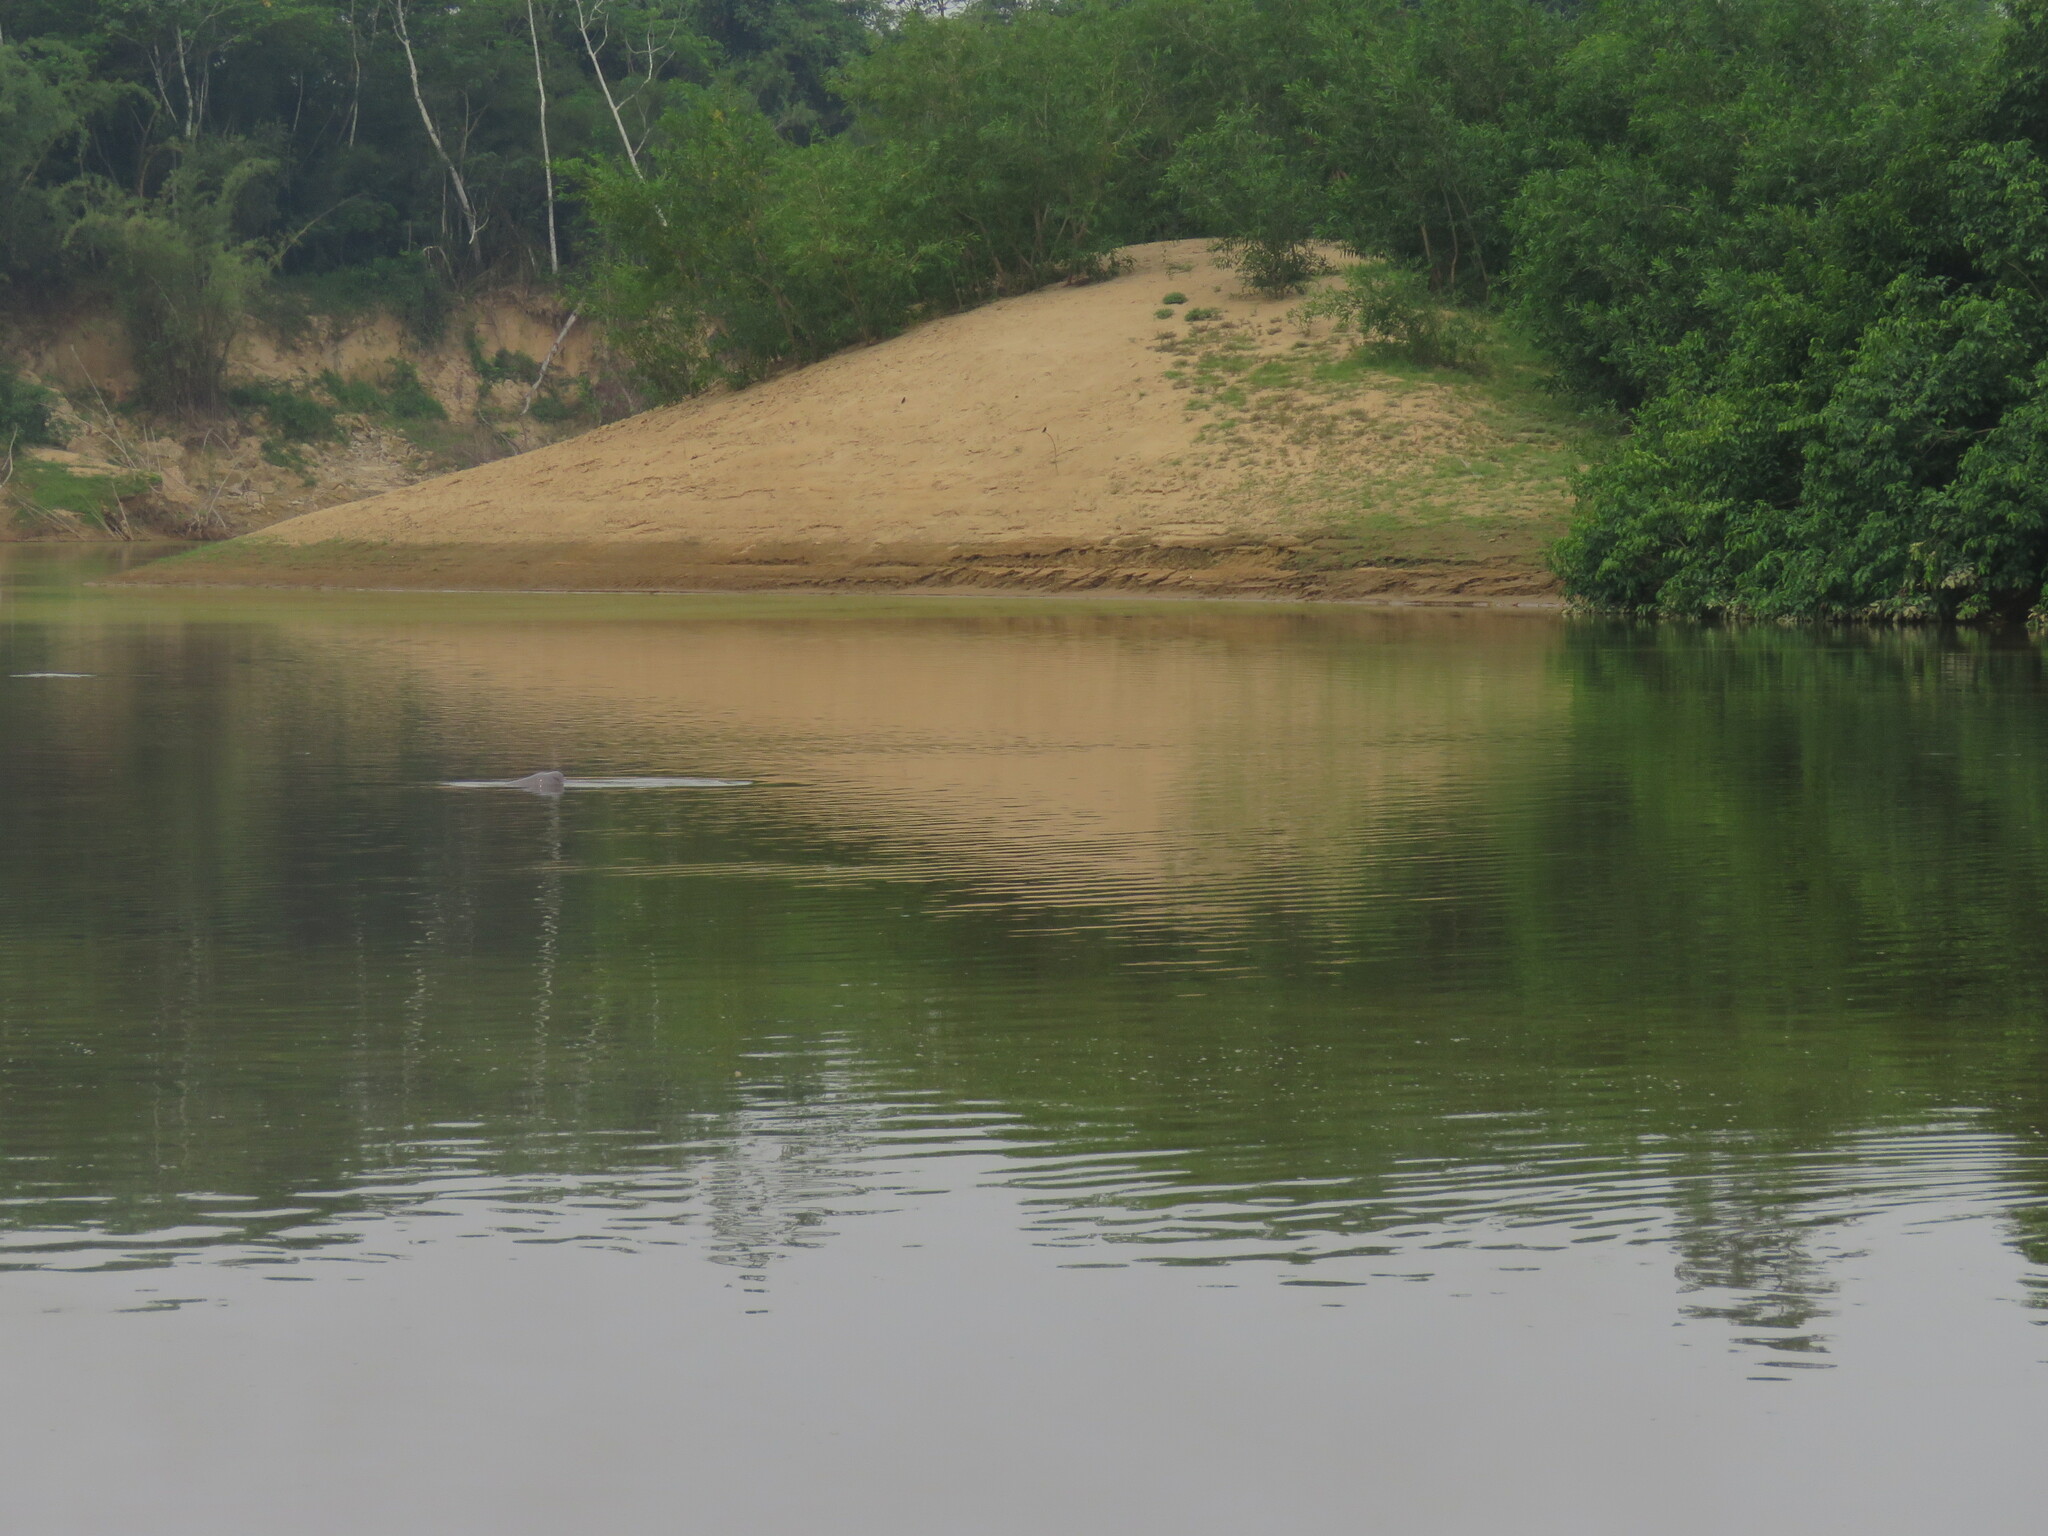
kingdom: Animalia
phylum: Chordata
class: Mammalia
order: Cetacea
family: Iniidae
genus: Inia
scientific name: Inia geoffrensis
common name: Amazon river dolphin
